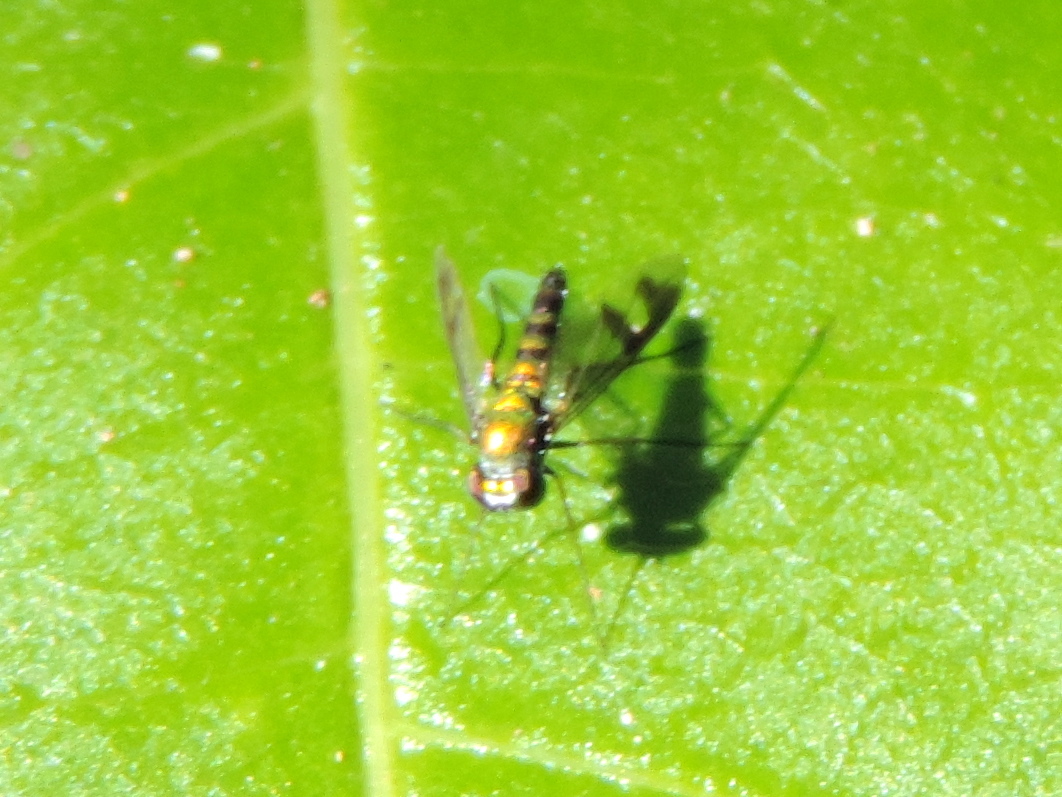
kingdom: Animalia
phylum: Arthropoda
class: Insecta
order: Diptera
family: Dolichopodidae
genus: Condylostylus
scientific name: Condylostylus
